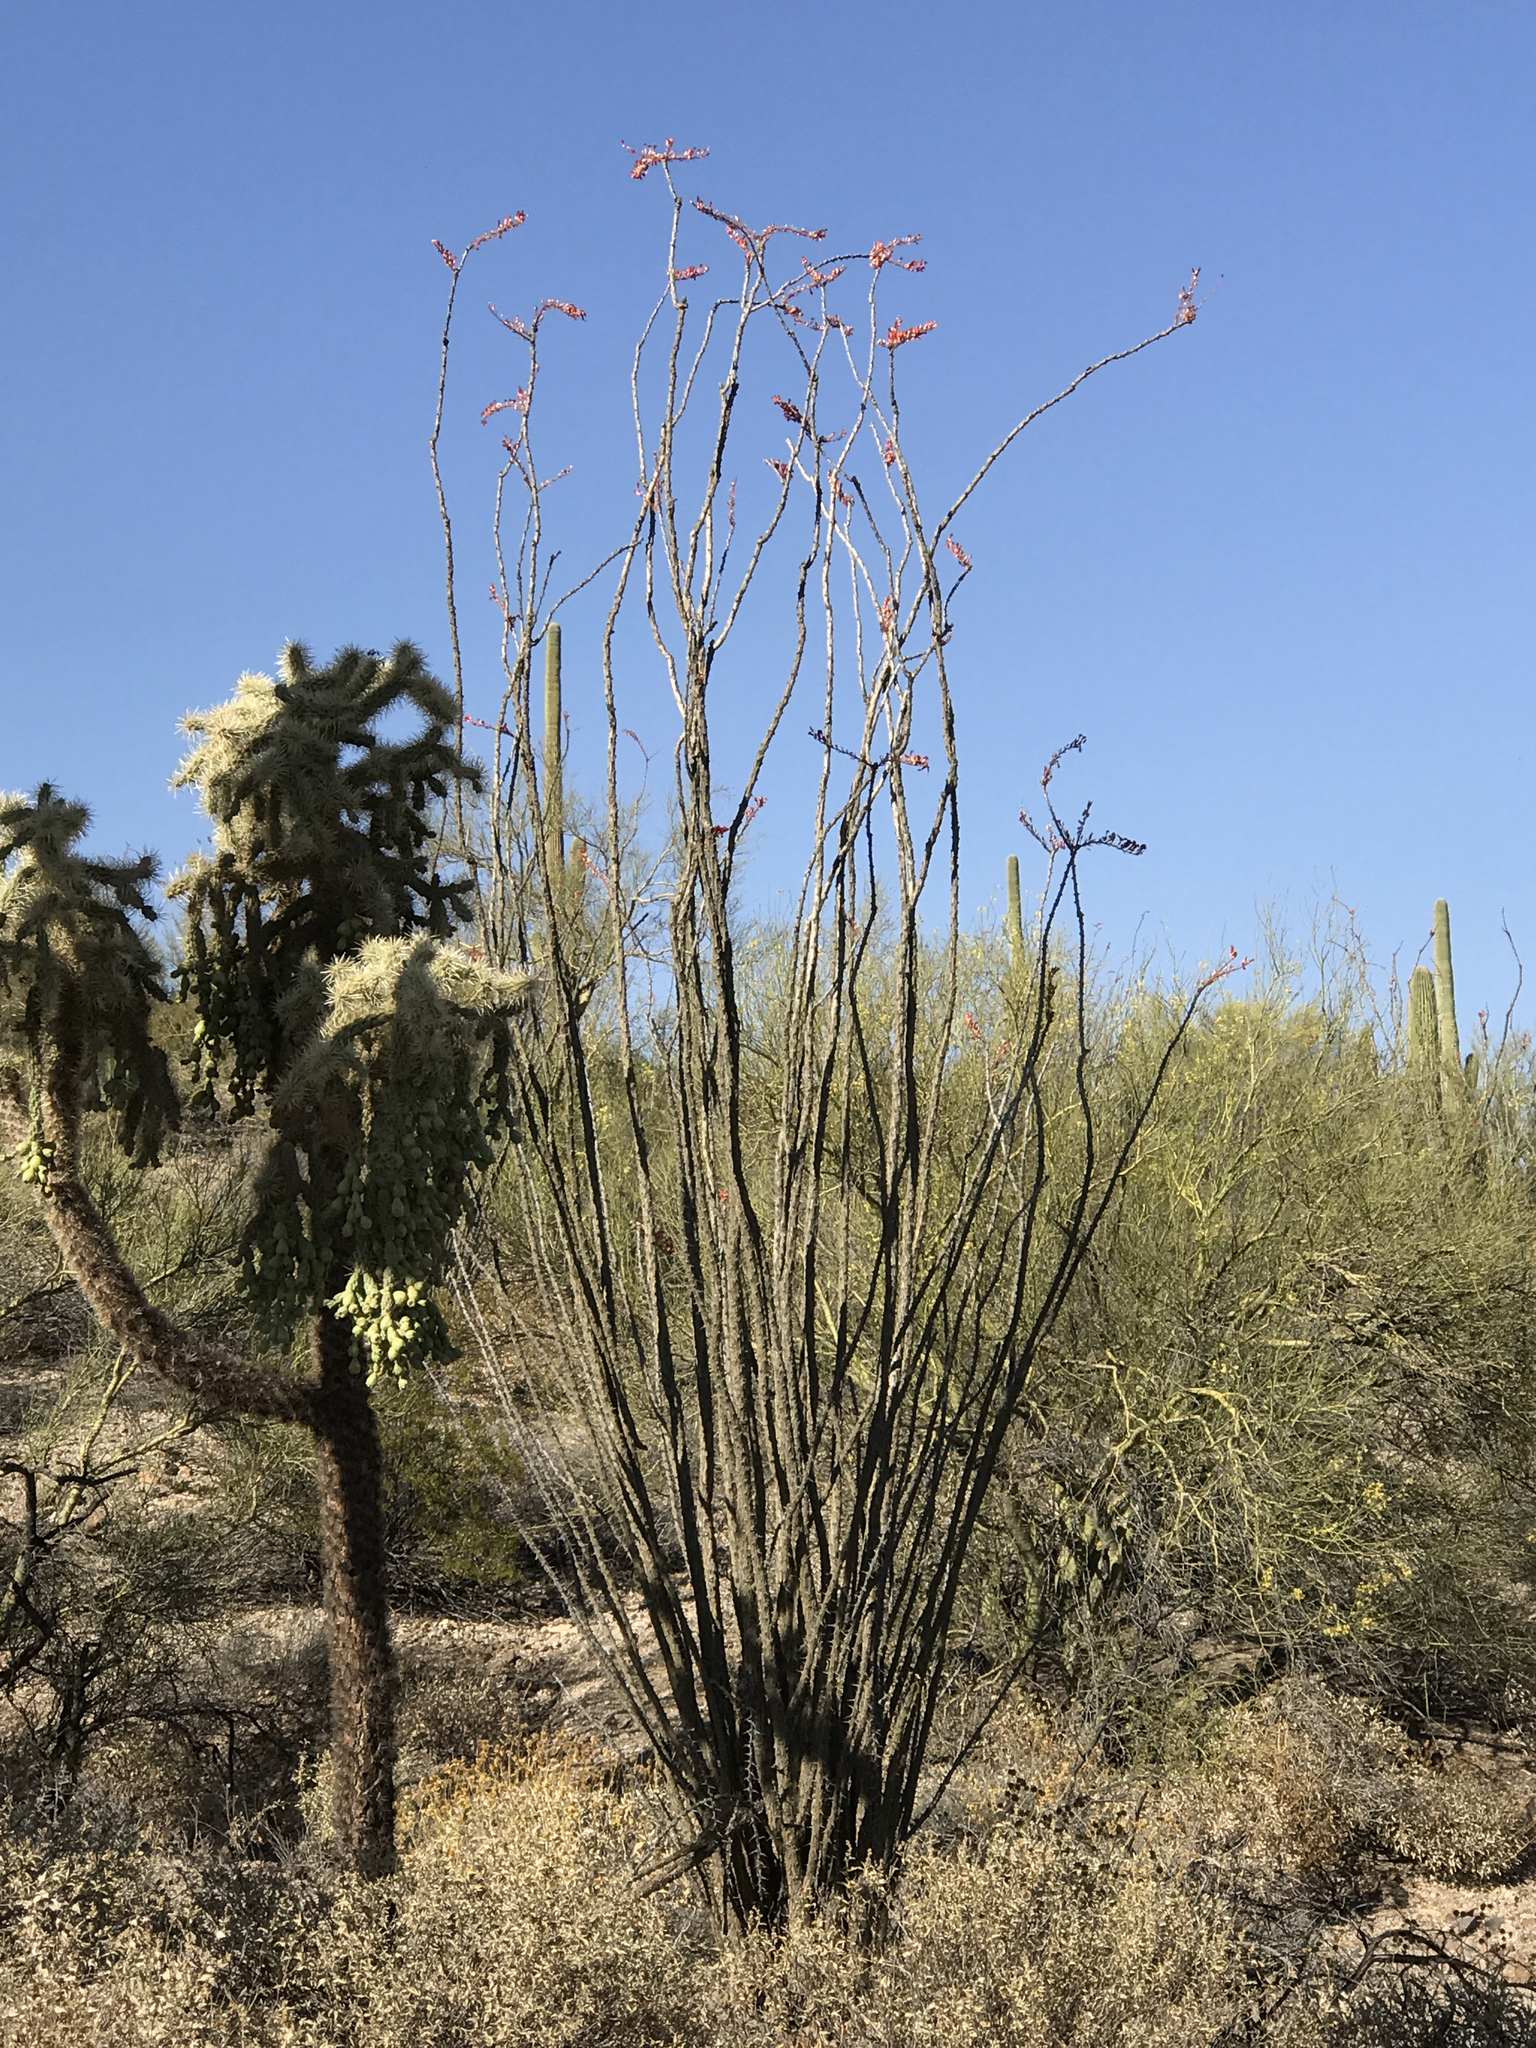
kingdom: Plantae
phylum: Tracheophyta
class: Magnoliopsida
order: Ericales
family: Fouquieriaceae
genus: Fouquieria
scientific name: Fouquieria splendens
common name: Vine-cactus
